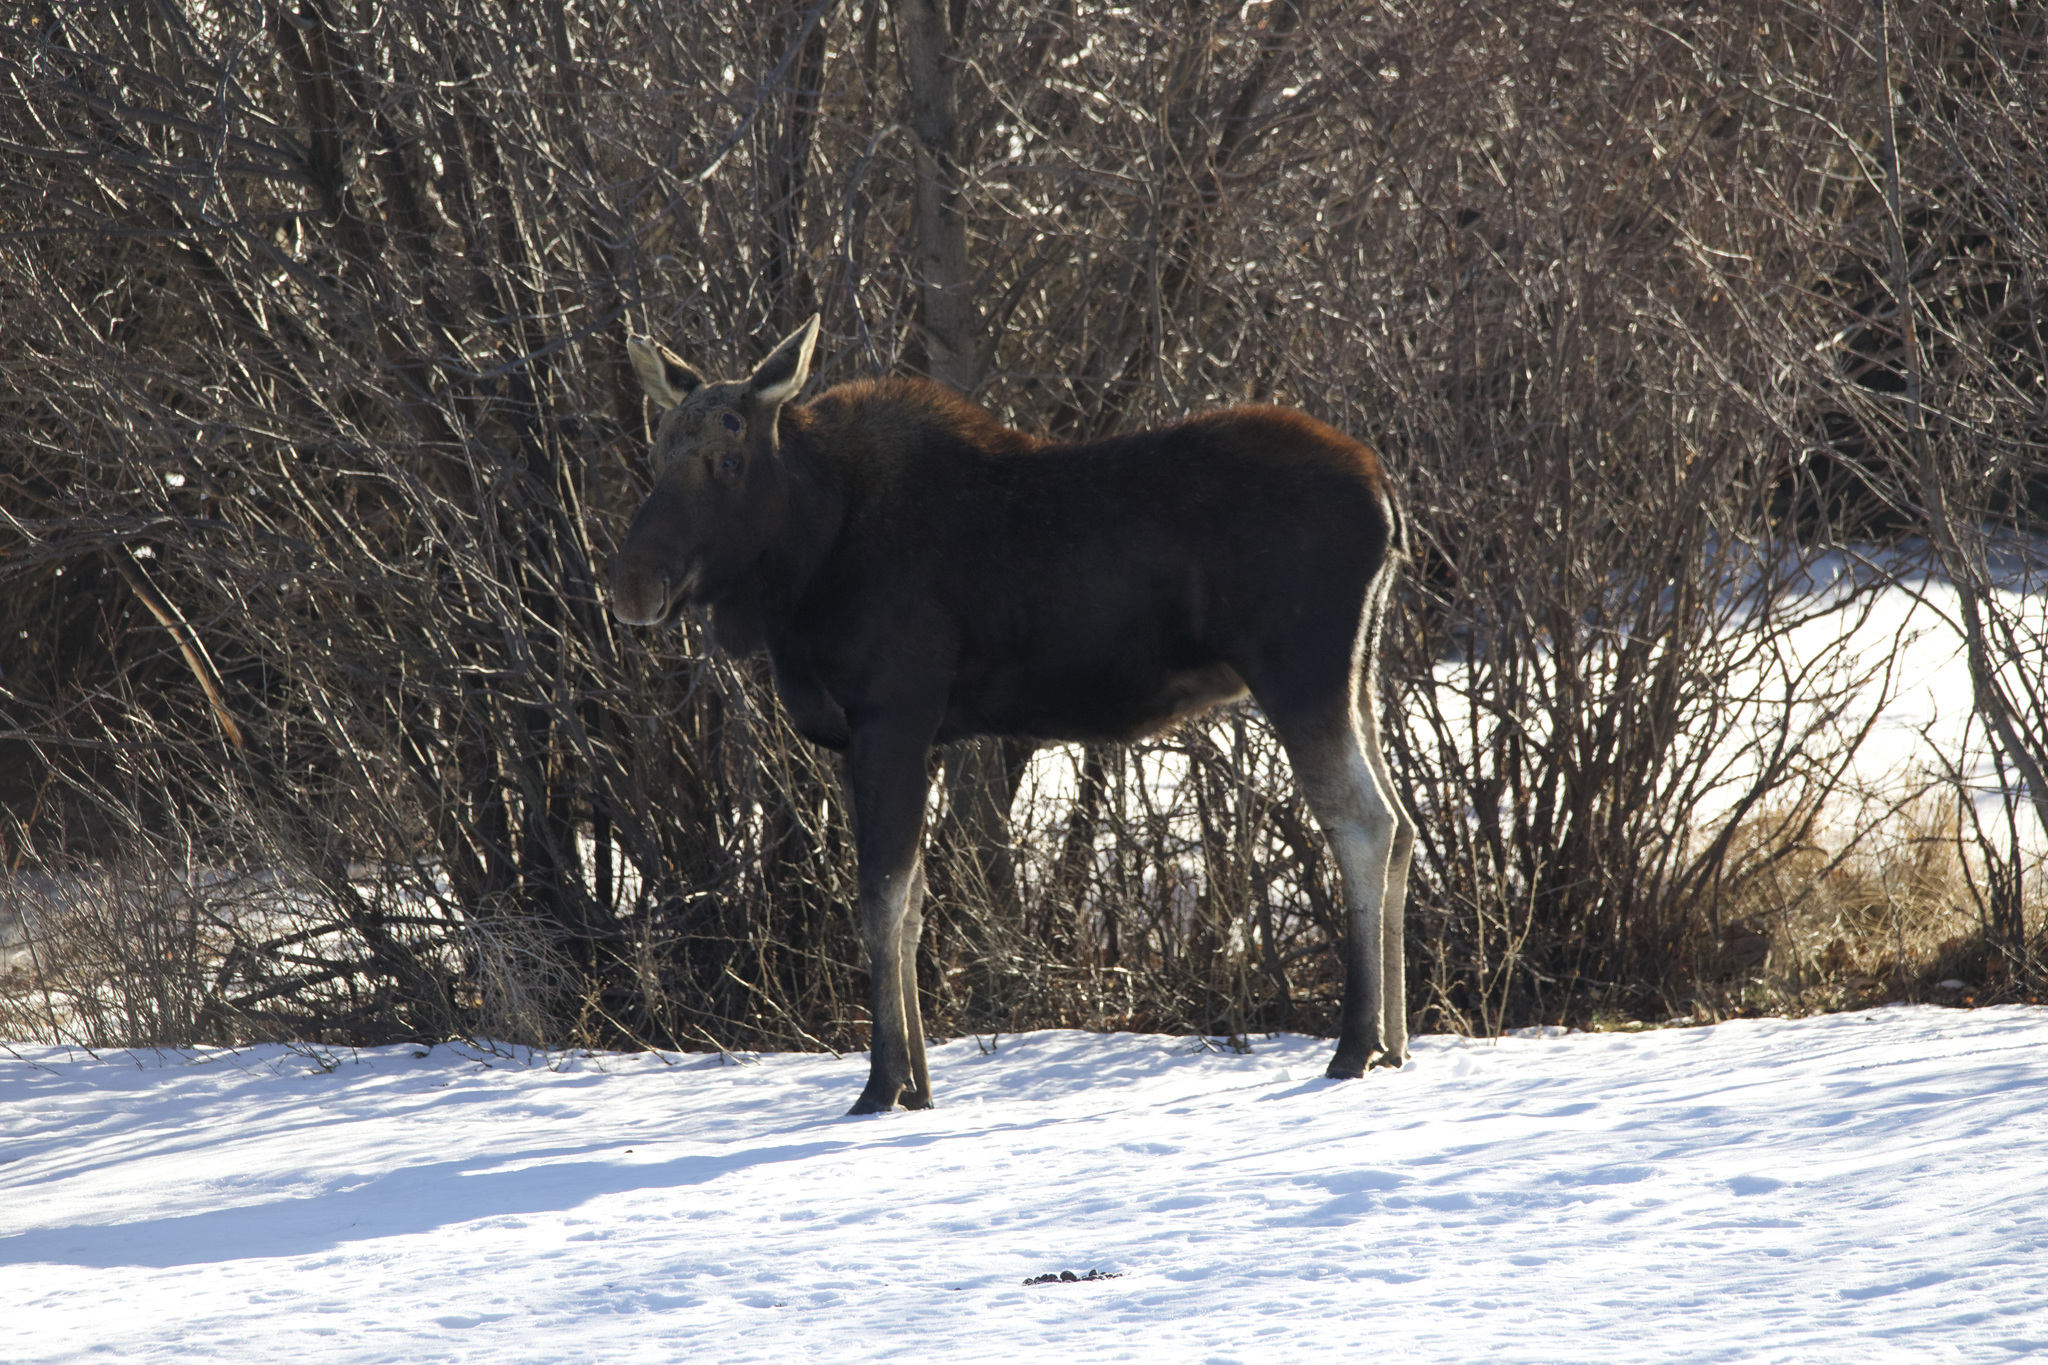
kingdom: Animalia
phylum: Chordata
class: Mammalia
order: Artiodactyla
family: Cervidae
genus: Alces
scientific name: Alces alces
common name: Moose
